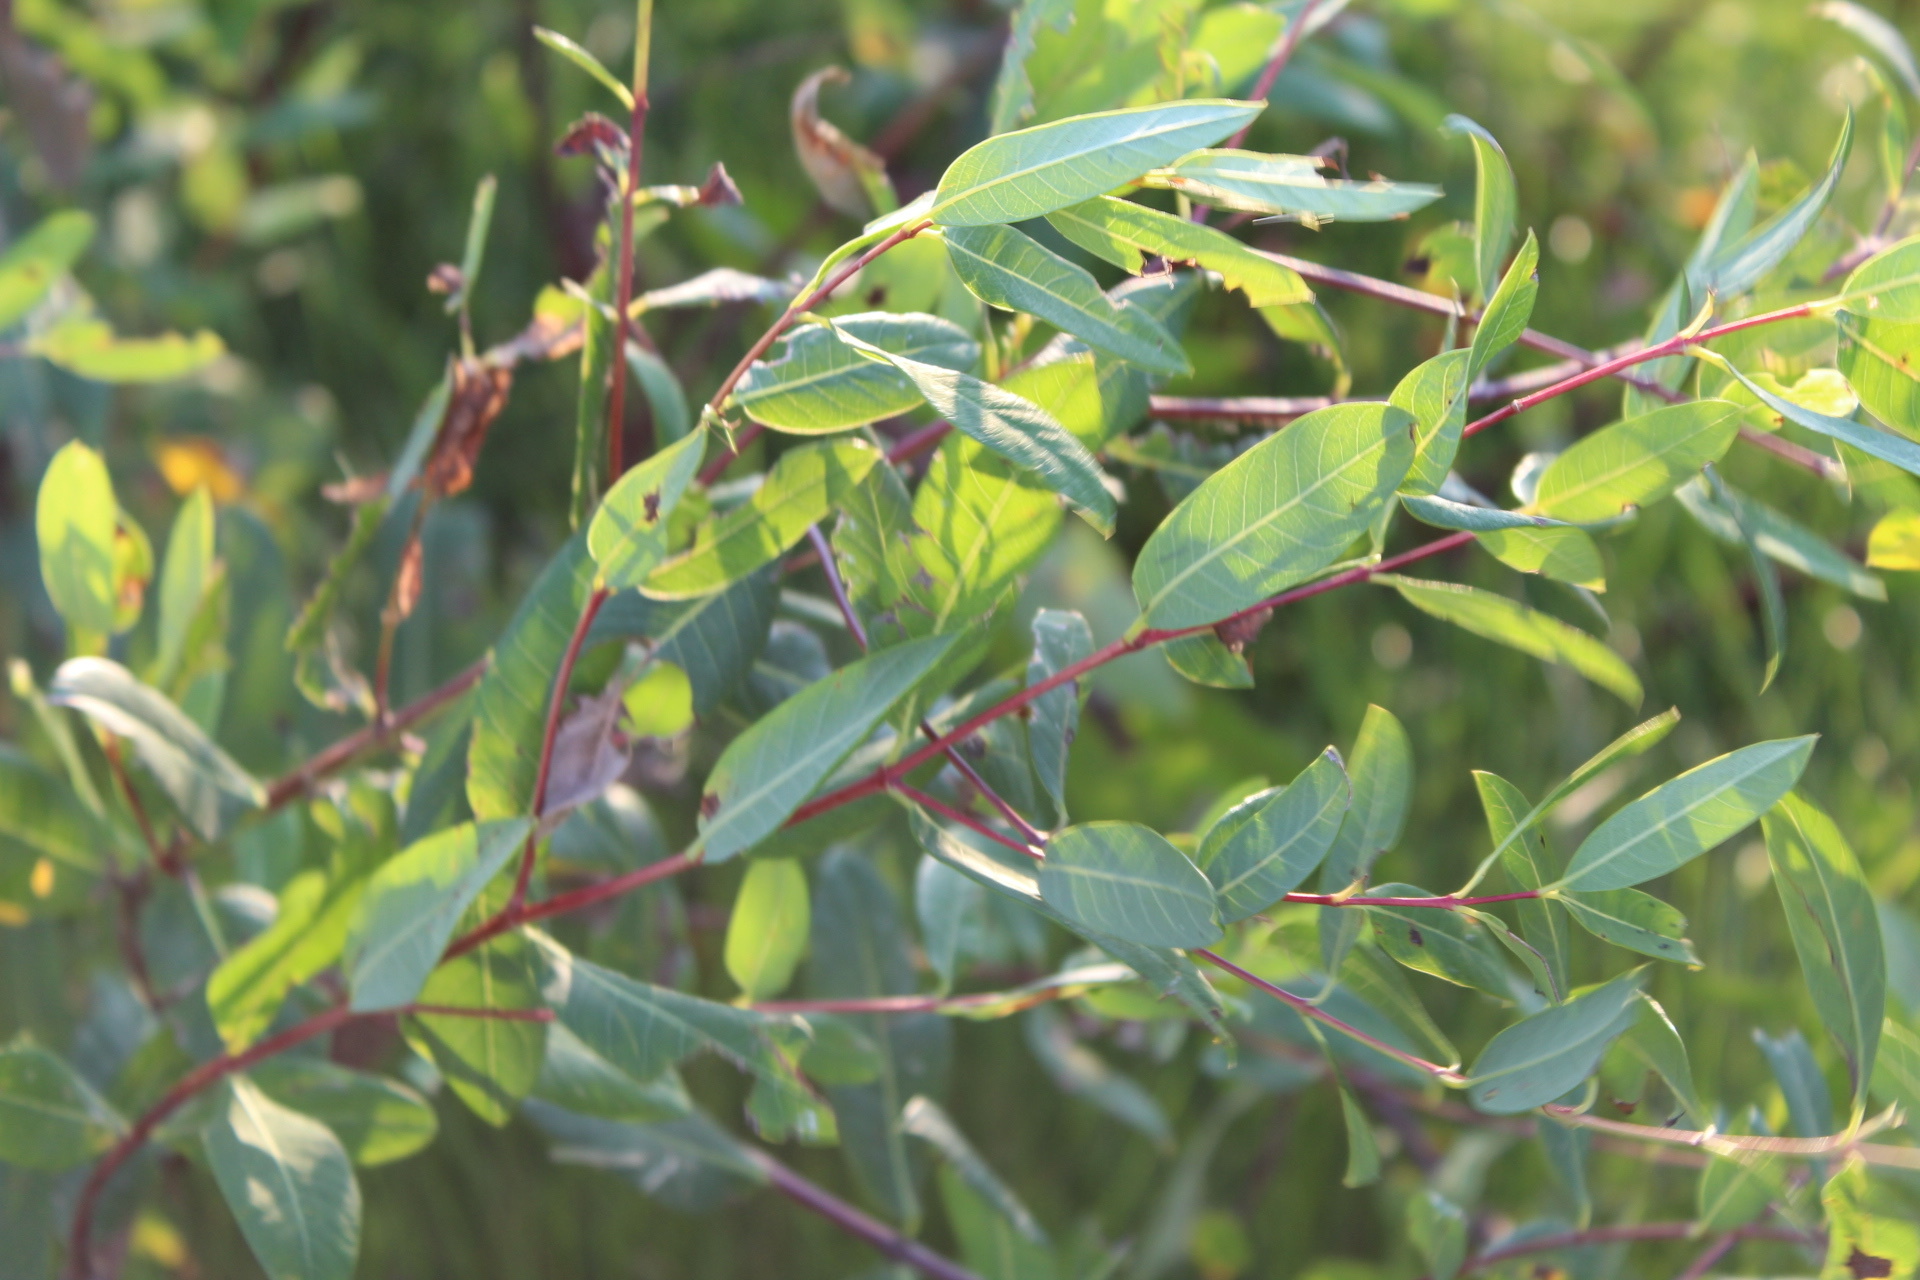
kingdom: Plantae
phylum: Tracheophyta
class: Magnoliopsida
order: Gentianales
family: Apocynaceae
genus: Apocynum
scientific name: Apocynum cannabinum
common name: Hemp dogbane
